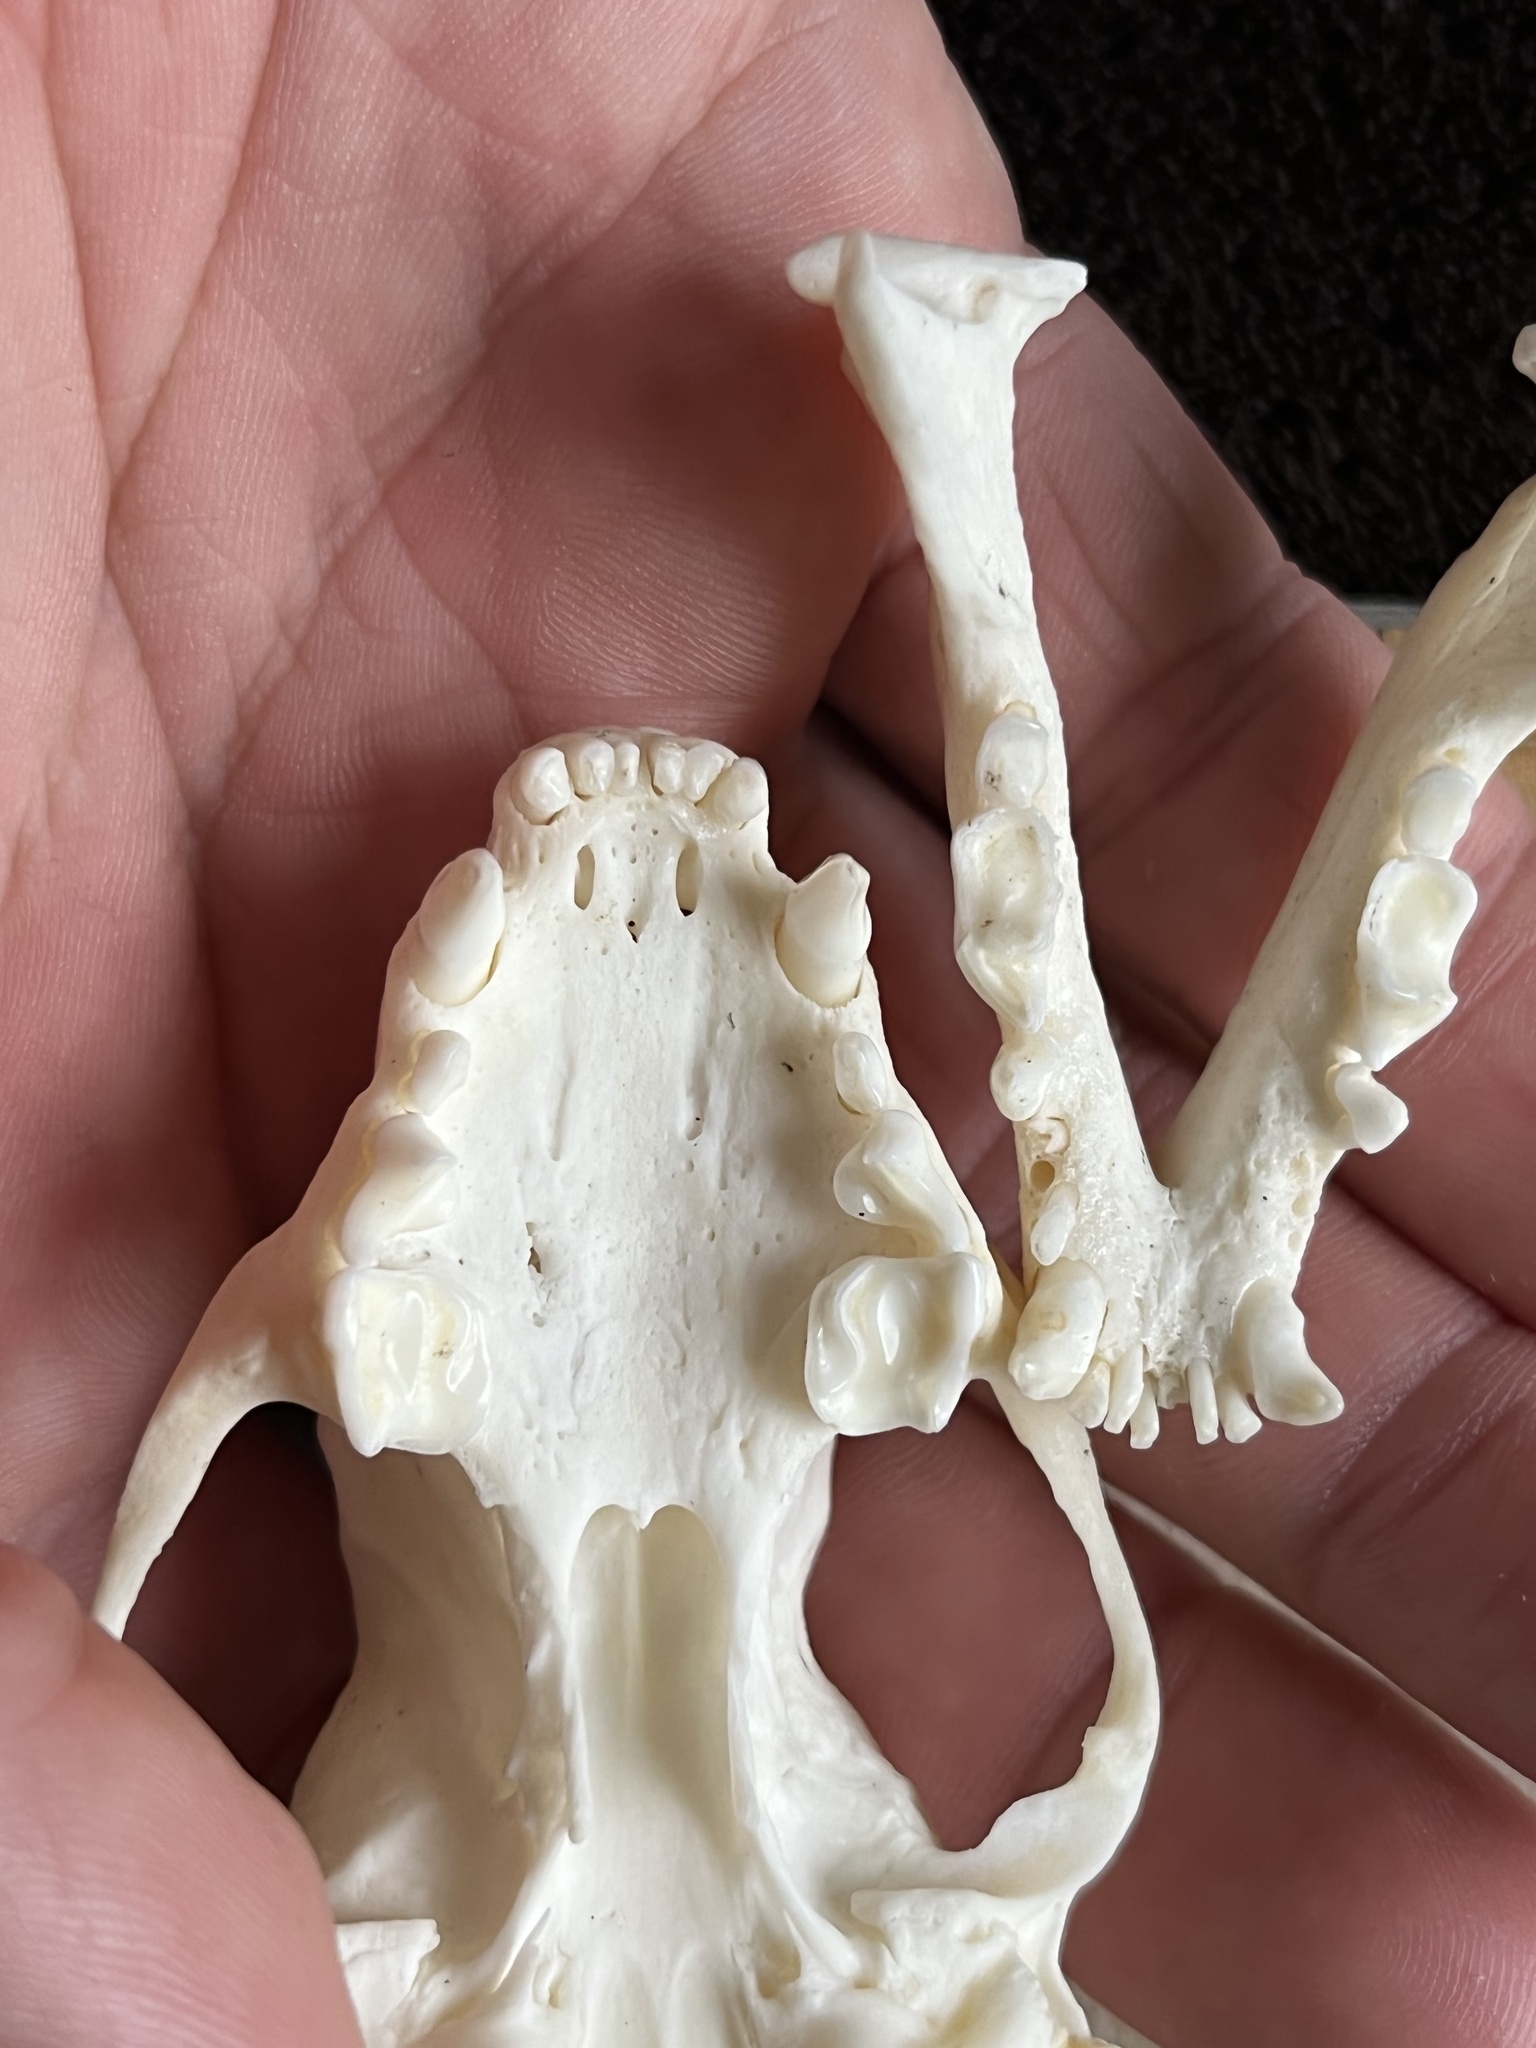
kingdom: Animalia
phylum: Chordata
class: Mammalia
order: Carnivora
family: Mephitidae
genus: Conepatus
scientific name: Conepatus leuconotus
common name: Eastern hog-nosed skunk
